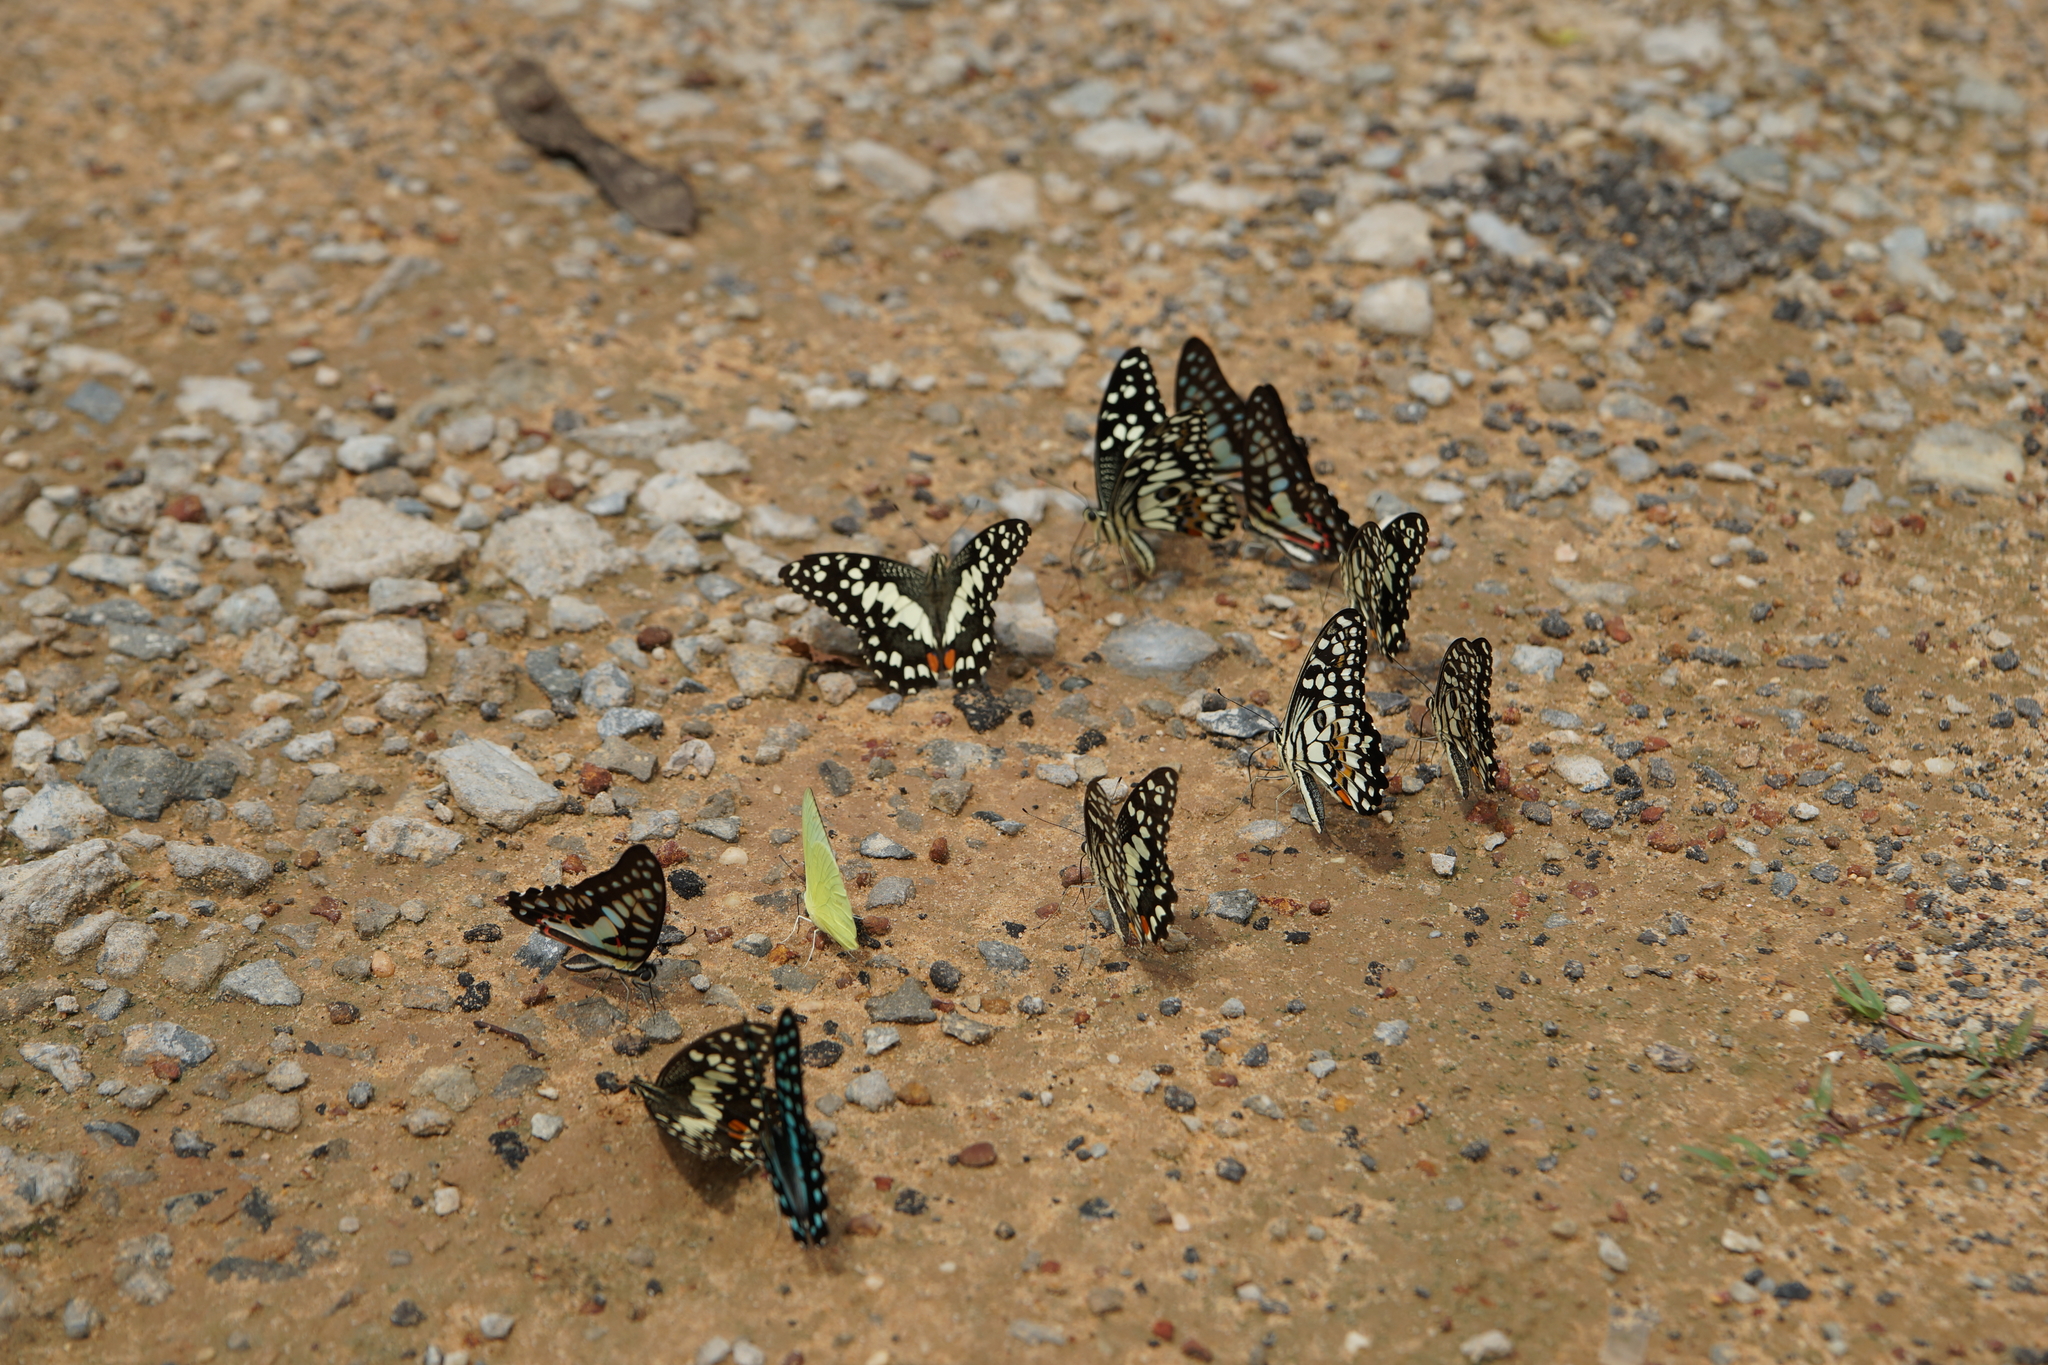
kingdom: Animalia
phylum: Arthropoda
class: Insecta
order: Lepidoptera
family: Papilionidae
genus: Papilio
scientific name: Papilio demoleus
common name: Lime butterfly
